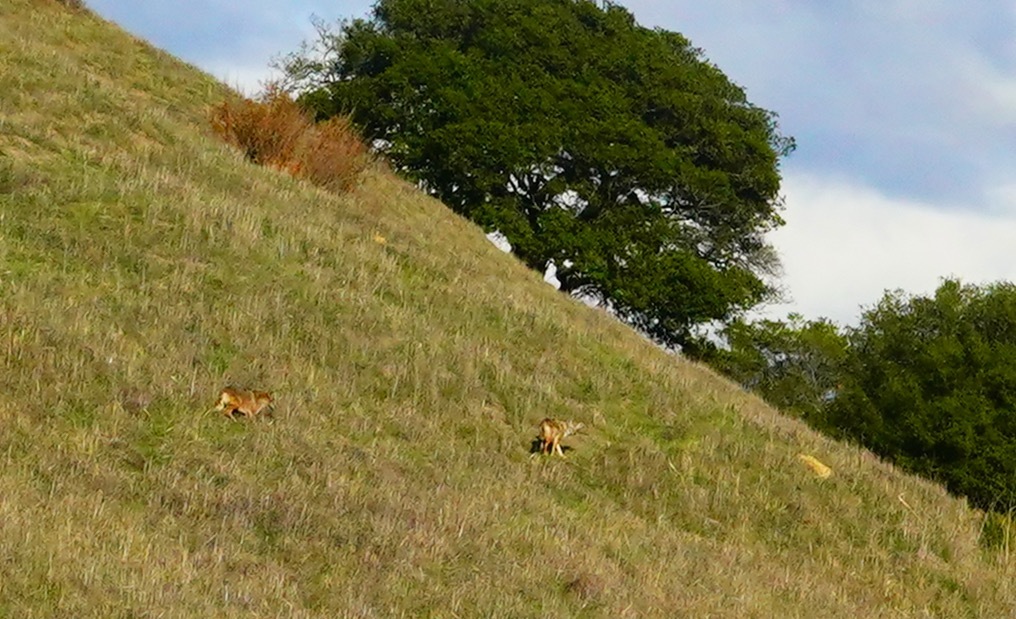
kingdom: Animalia
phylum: Chordata
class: Mammalia
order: Carnivora
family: Canidae
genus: Canis
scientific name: Canis latrans
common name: Coyote
